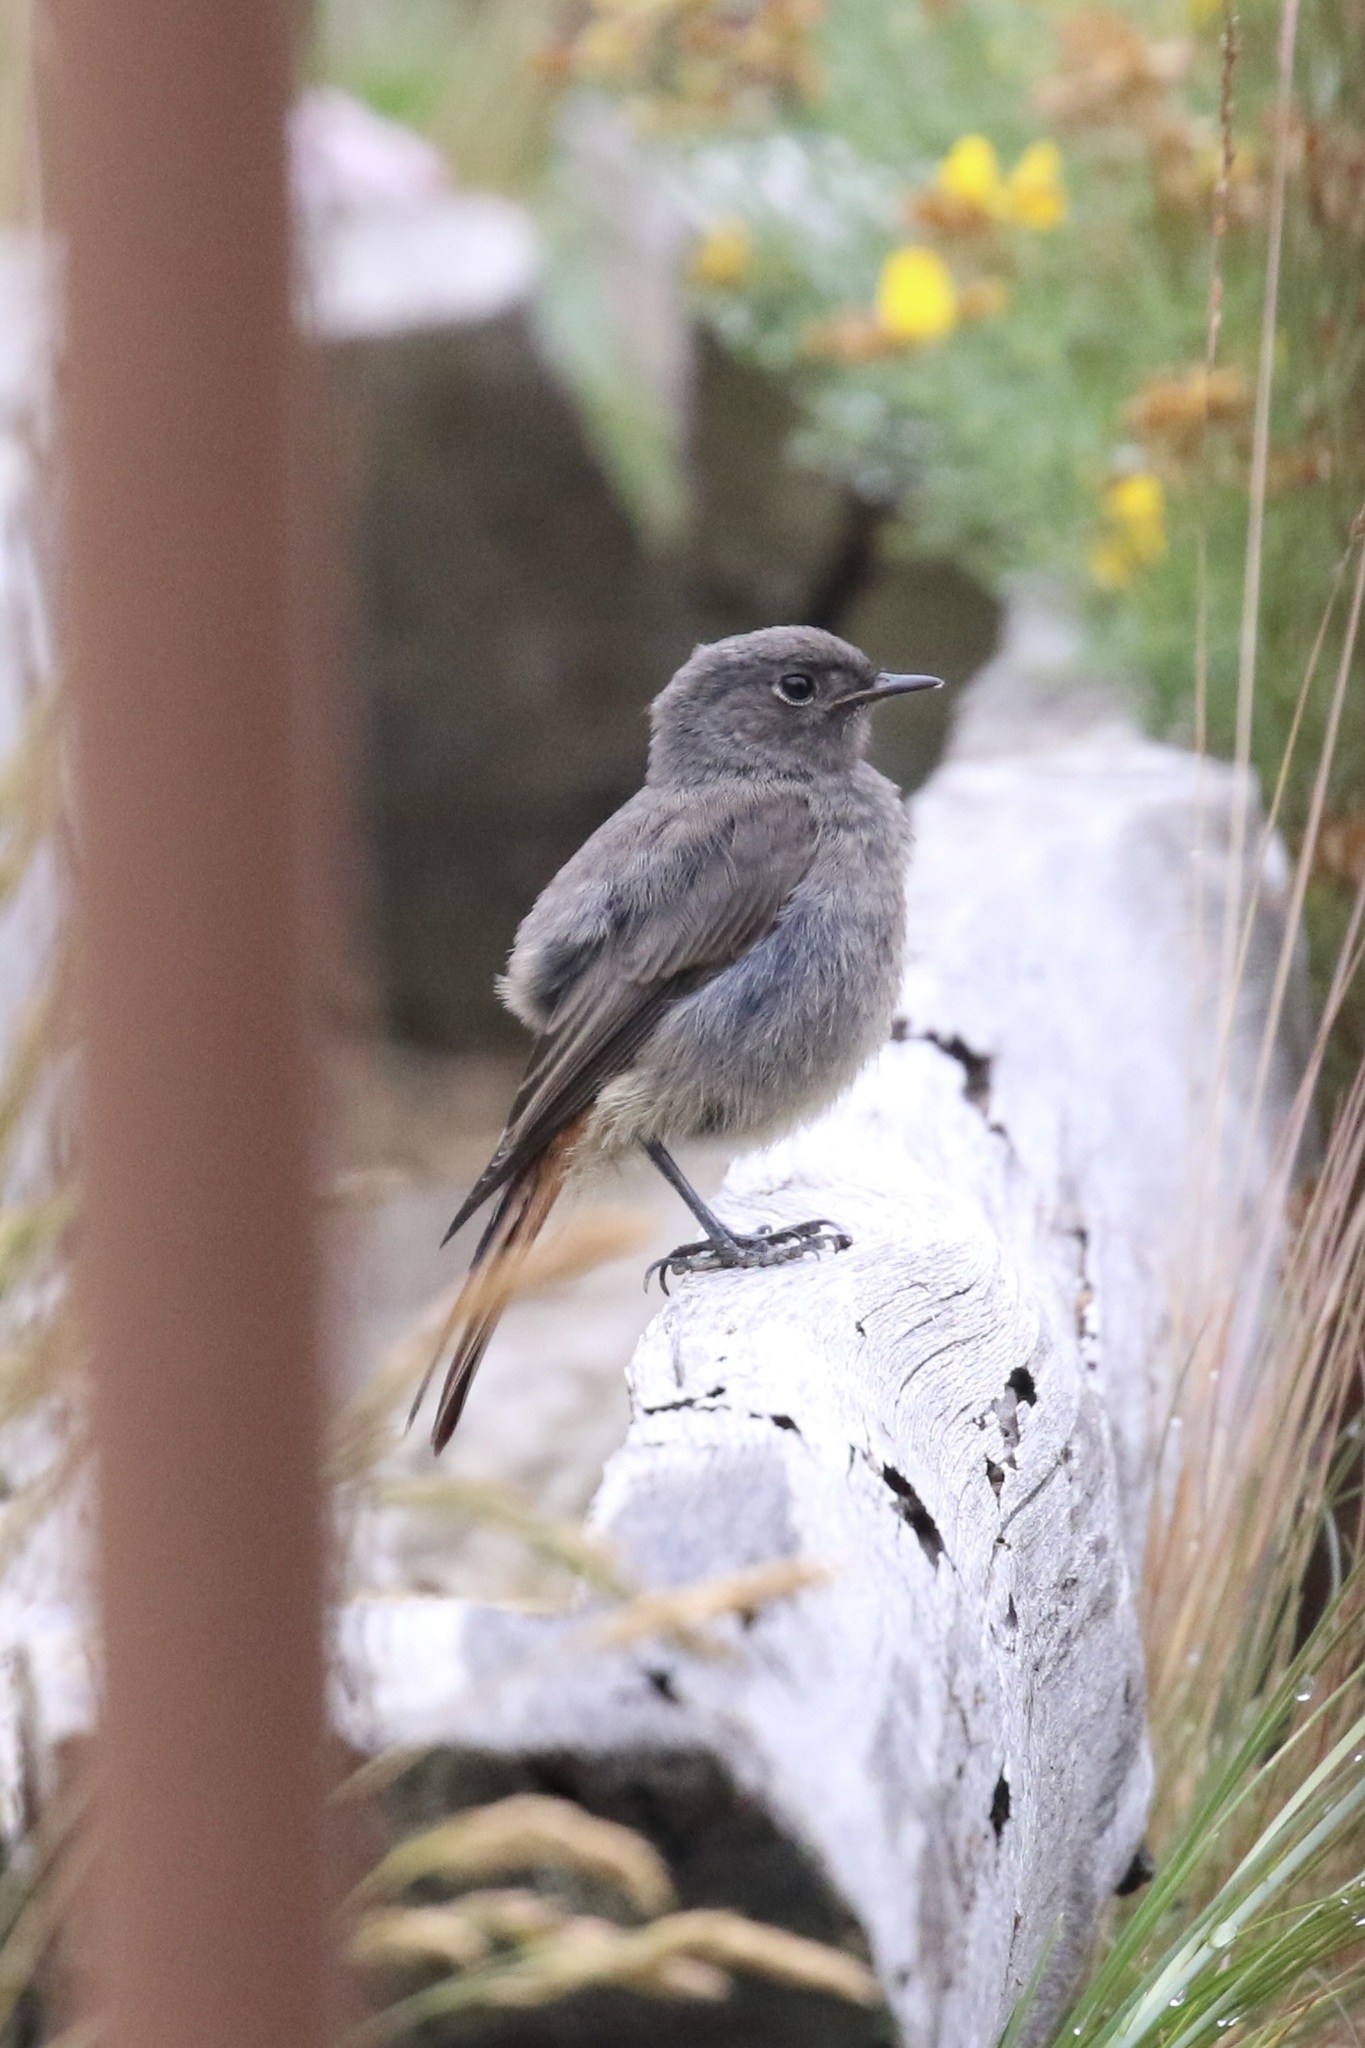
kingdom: Animalia
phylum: Chordata
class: Aves
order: Passeriformes
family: Muscicapidae
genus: Phoenicurus
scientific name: Phoenicurus ochruros
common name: Black redstart
